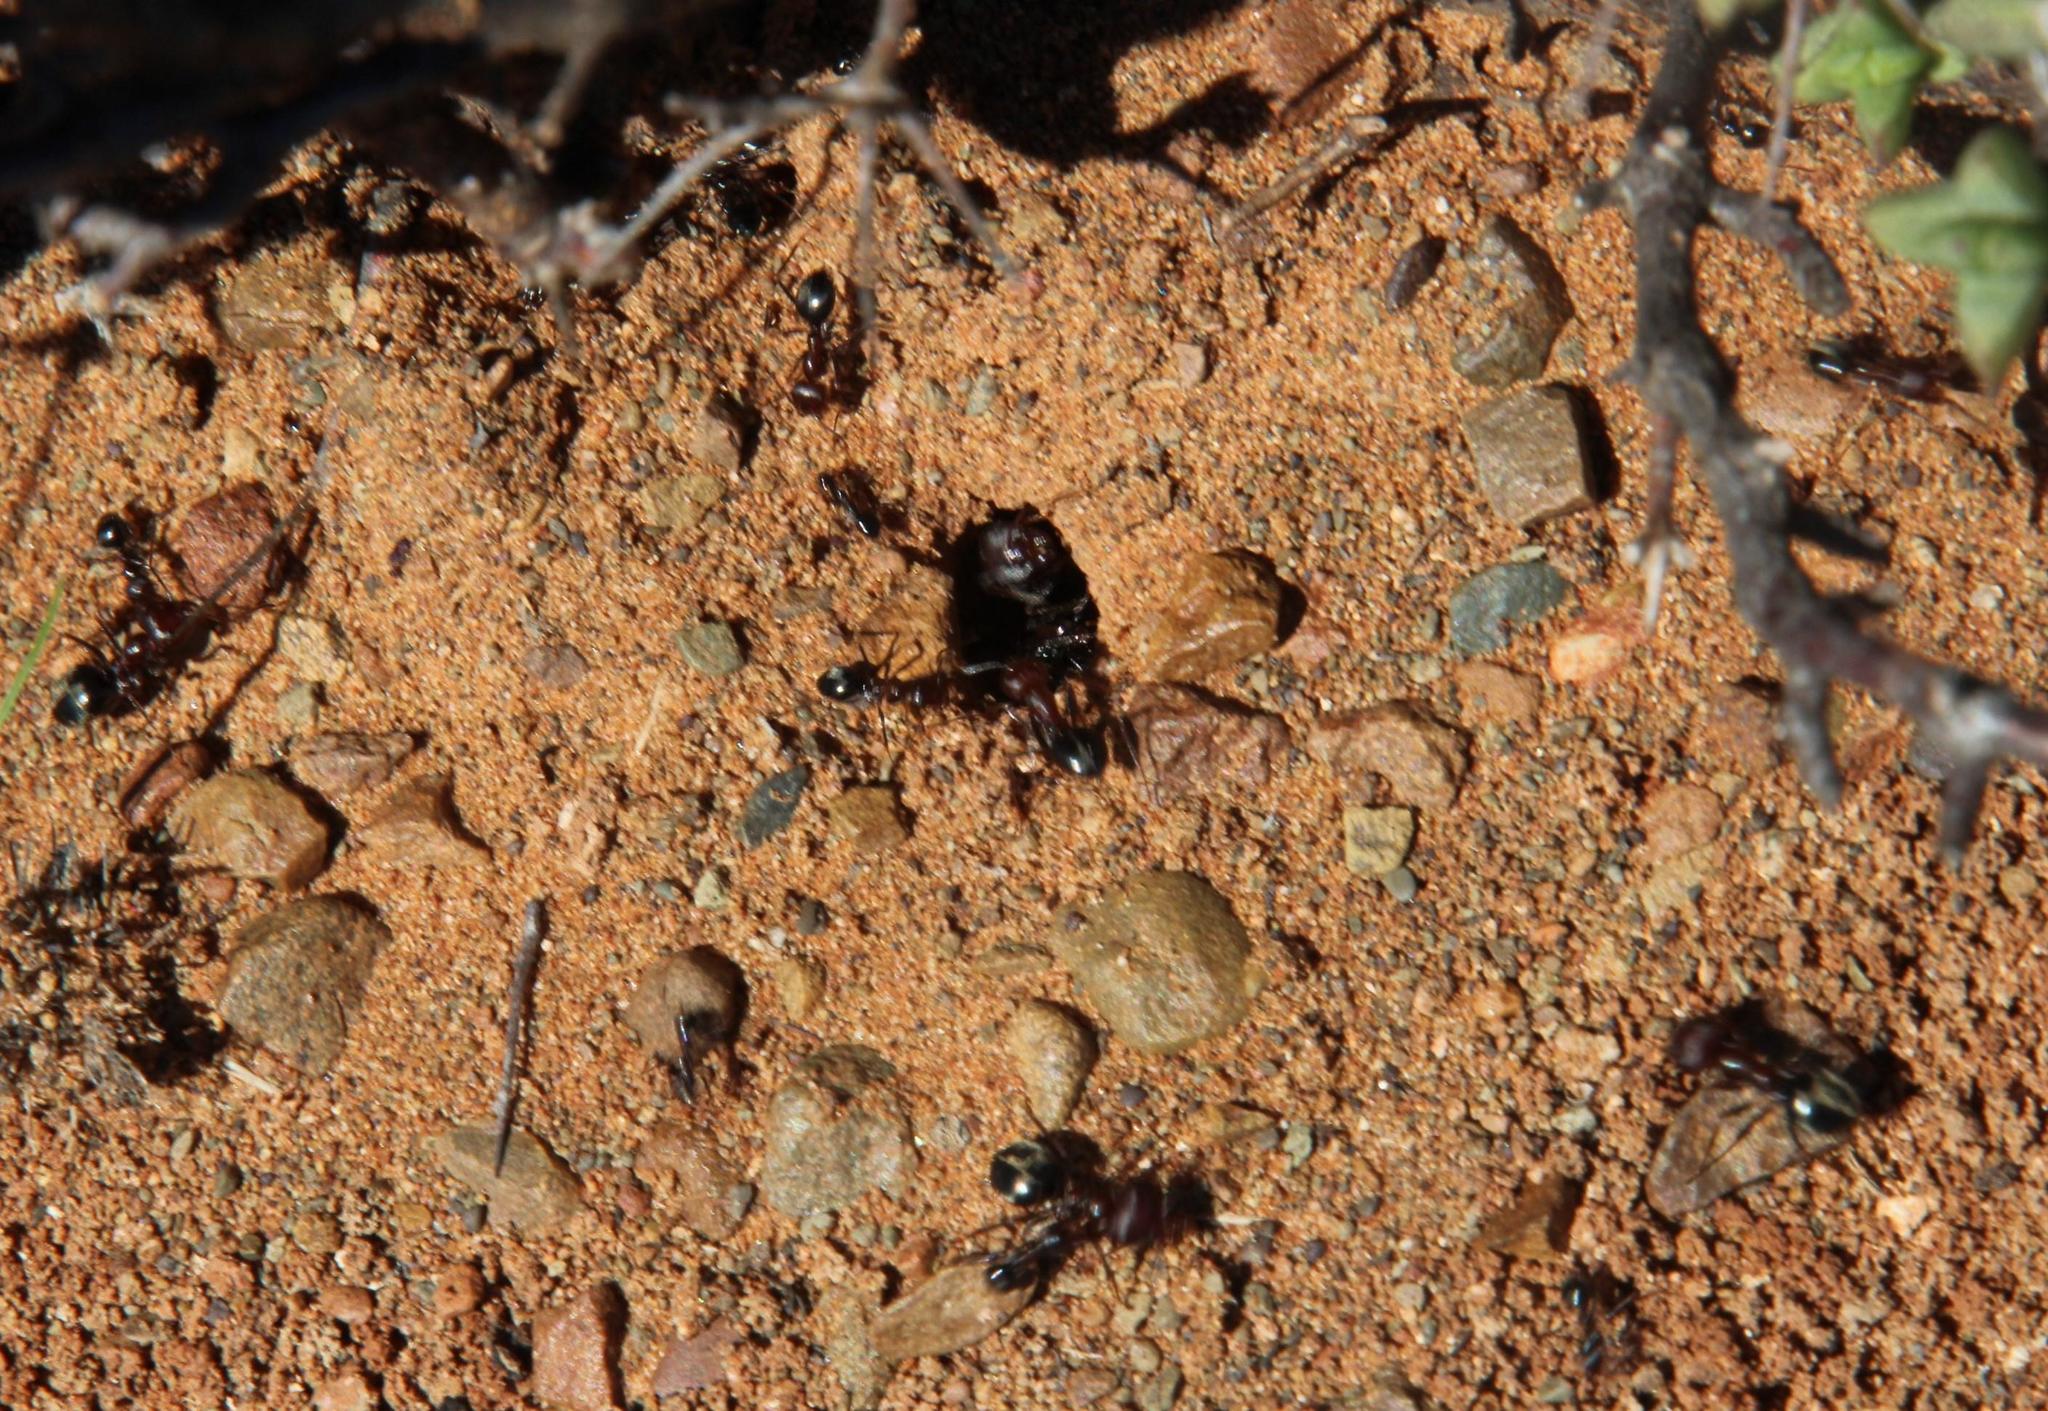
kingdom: Animalia
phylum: Arthropoda
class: Insecta
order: Hymenoptera
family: Formicidae
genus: Anoplolepis
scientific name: Anoplolepis steingroeveri
